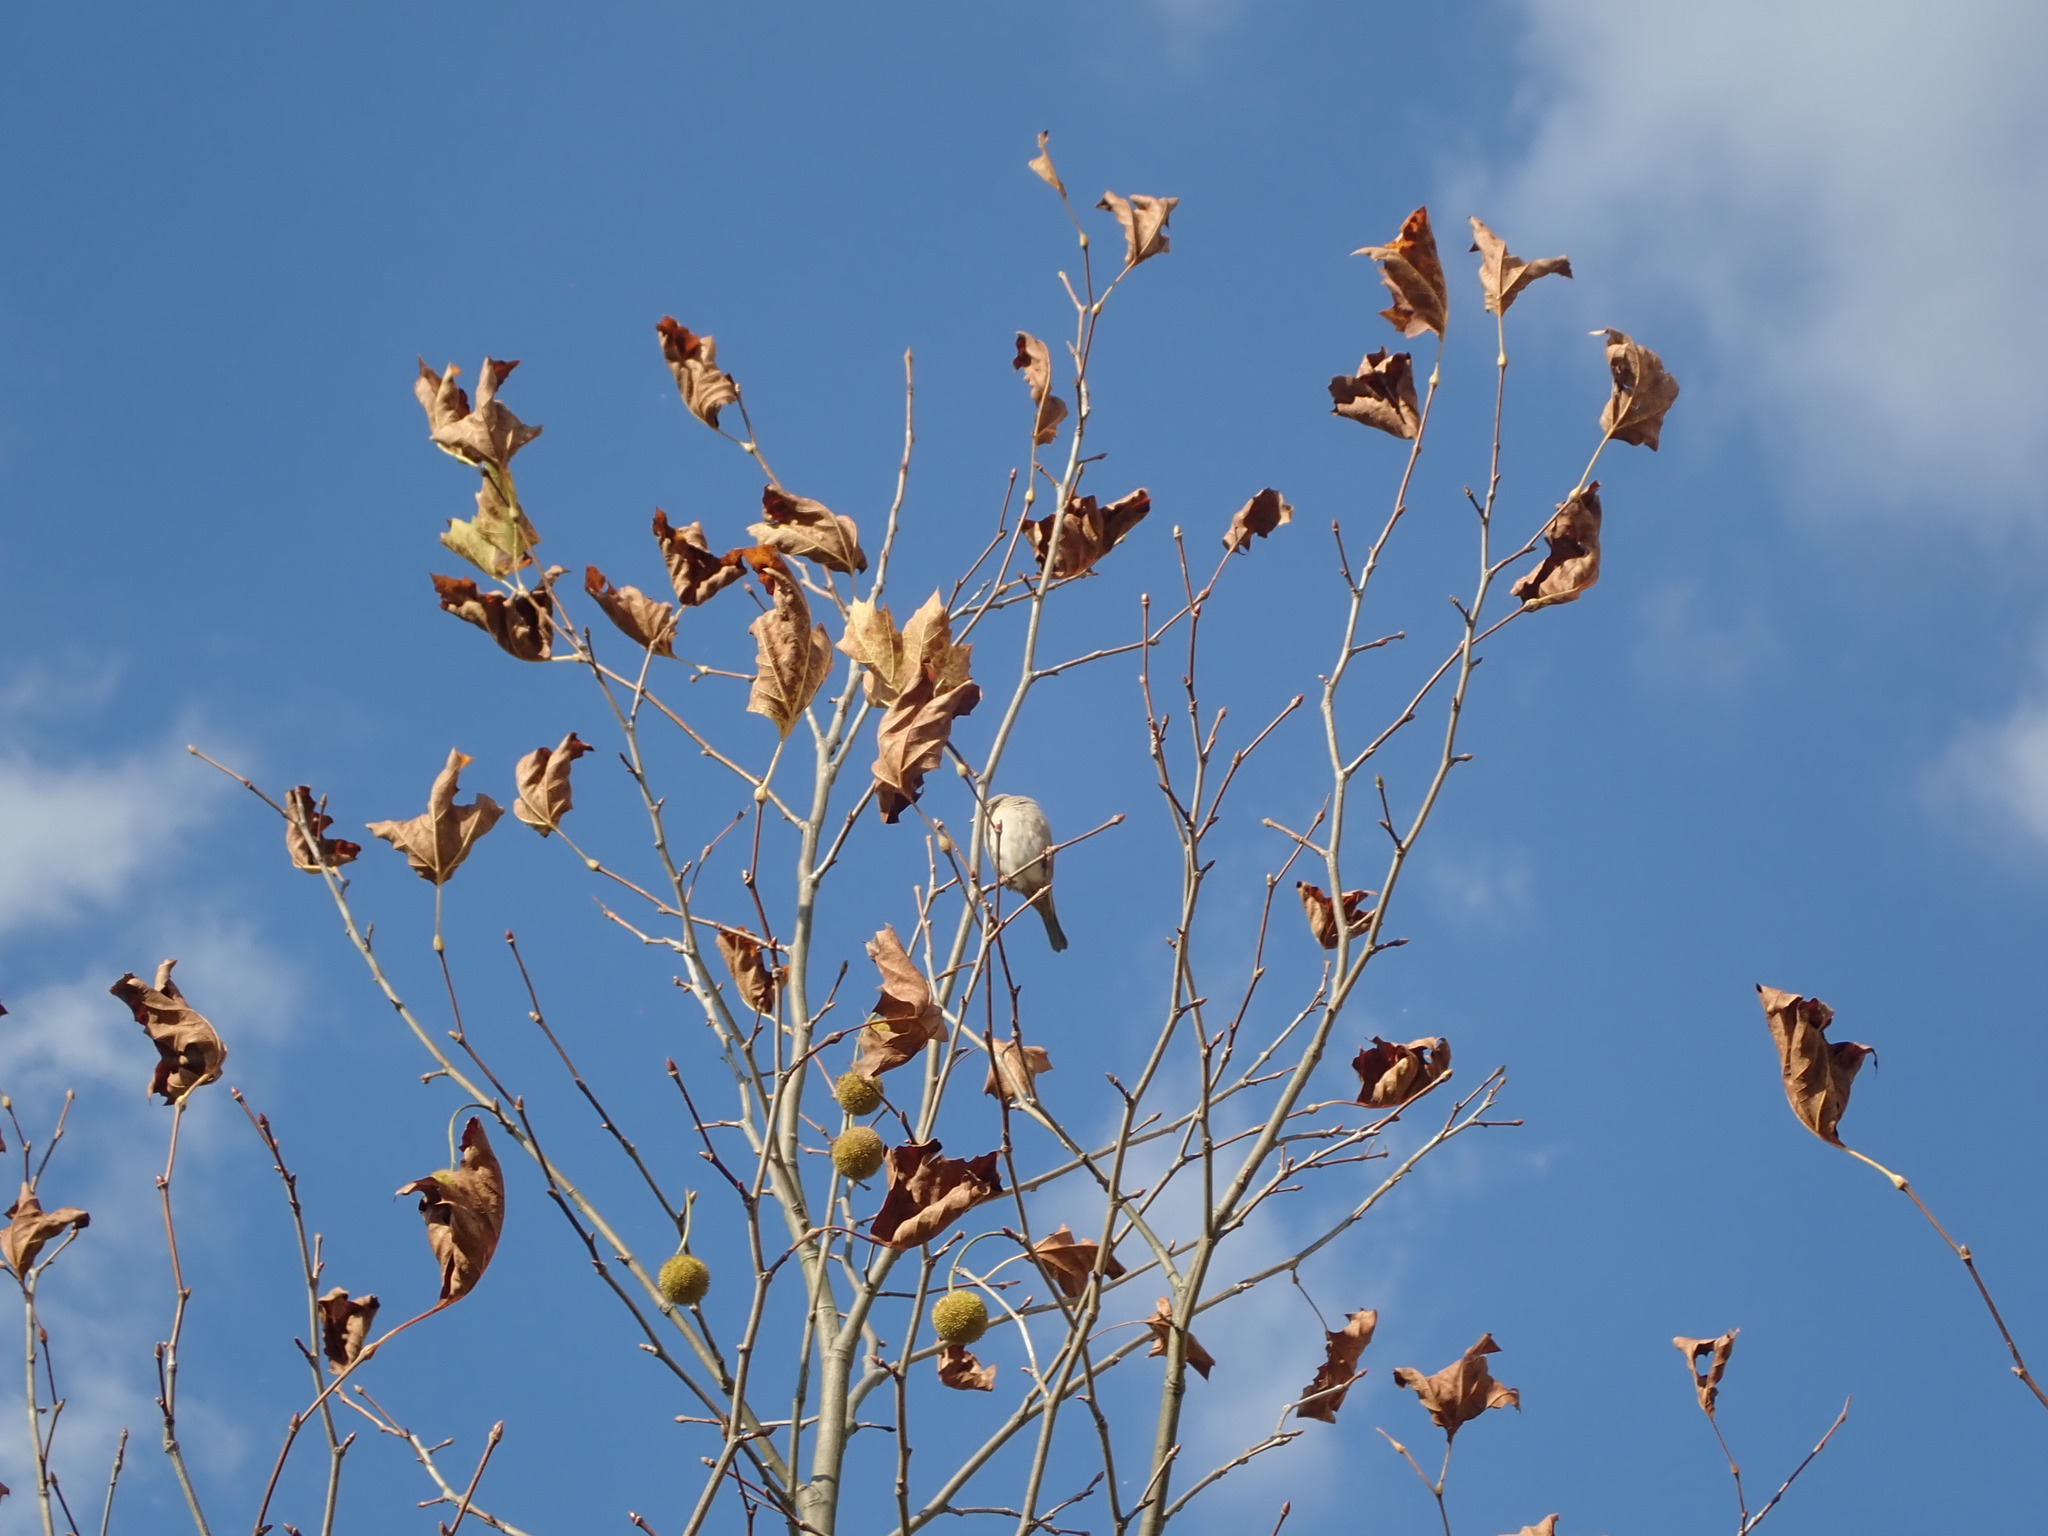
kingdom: Animalia
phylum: Chordata
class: Aves
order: Passeriformes
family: Passeridae
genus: Passer
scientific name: Passer domesticus
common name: House sparrow
